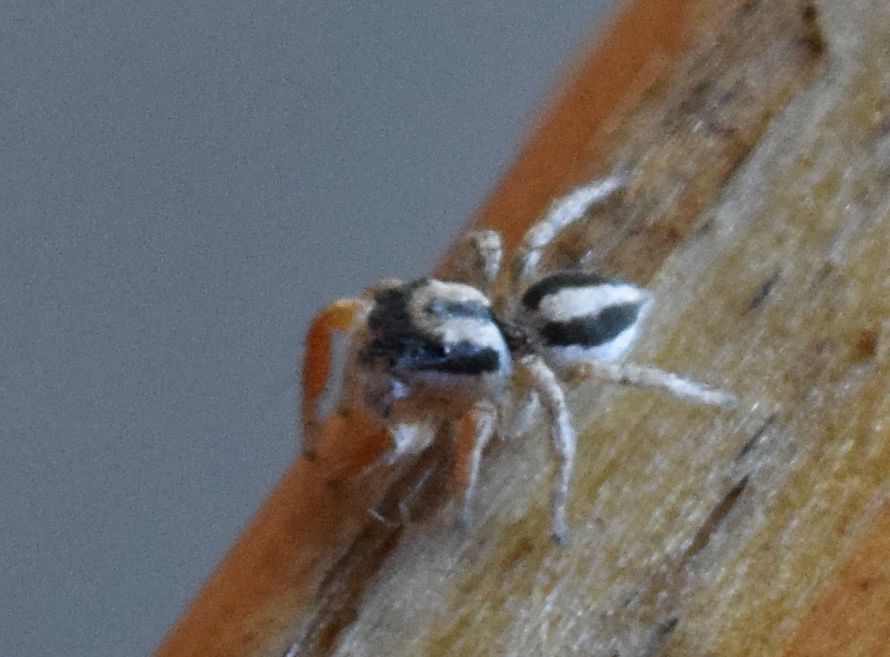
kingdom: Animalia
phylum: Arthropoda
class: Arachnida
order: Araneae
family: Salticidae
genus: Habronattus
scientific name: Habronattus icenoglei
